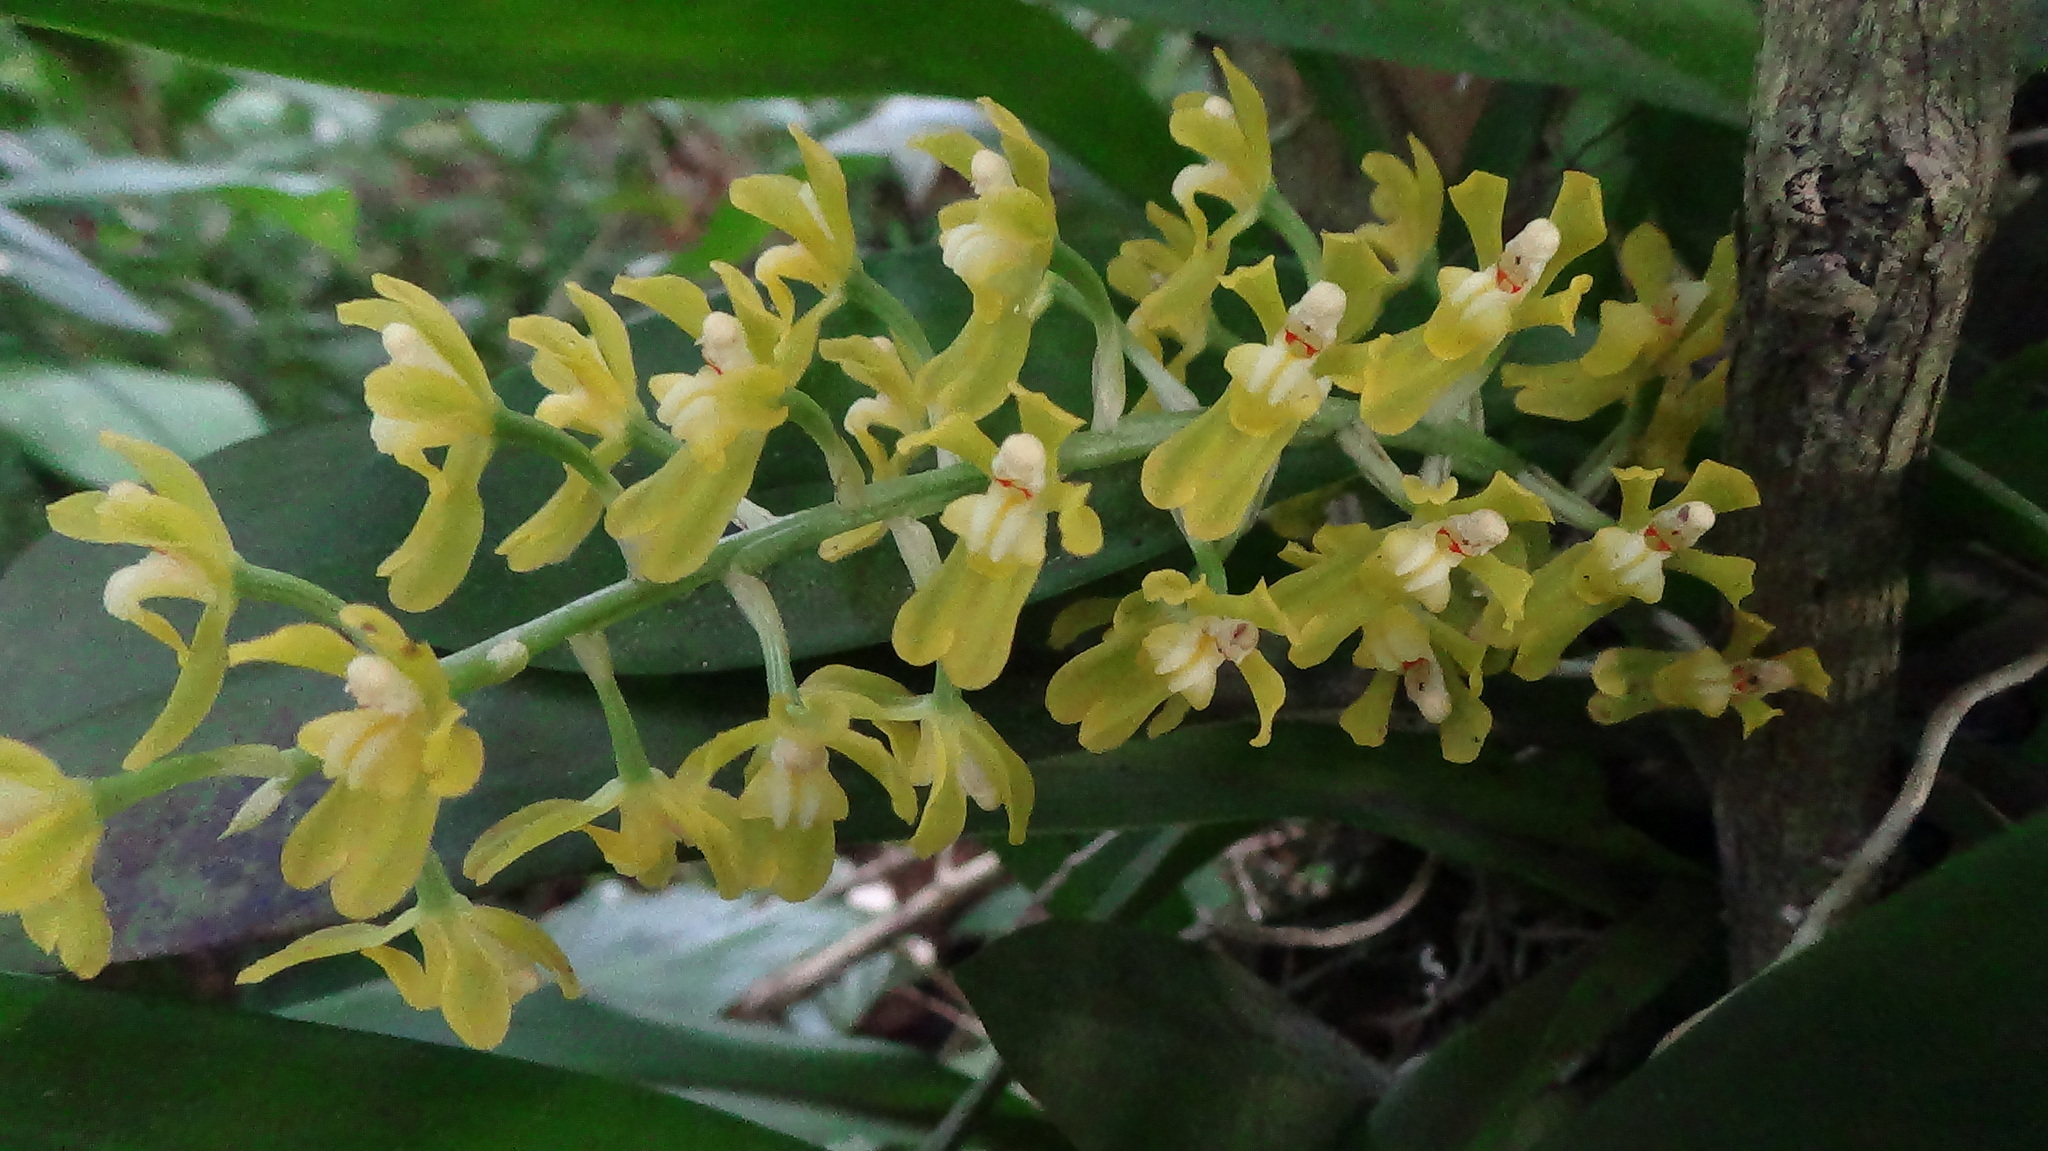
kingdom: Plantae
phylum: Tracheophyta
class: Liliopsida
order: Asparagales
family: Orchidaceae
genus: Gomesa
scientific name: Gomesa planifolia
